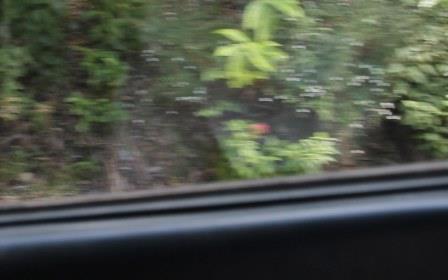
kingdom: Plantae
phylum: Tracheophyta
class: Magnoliopsida
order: Dipsacales
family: Caprifoliaceae
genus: Centranthus
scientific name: Centranthus ruber
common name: Red valerian
